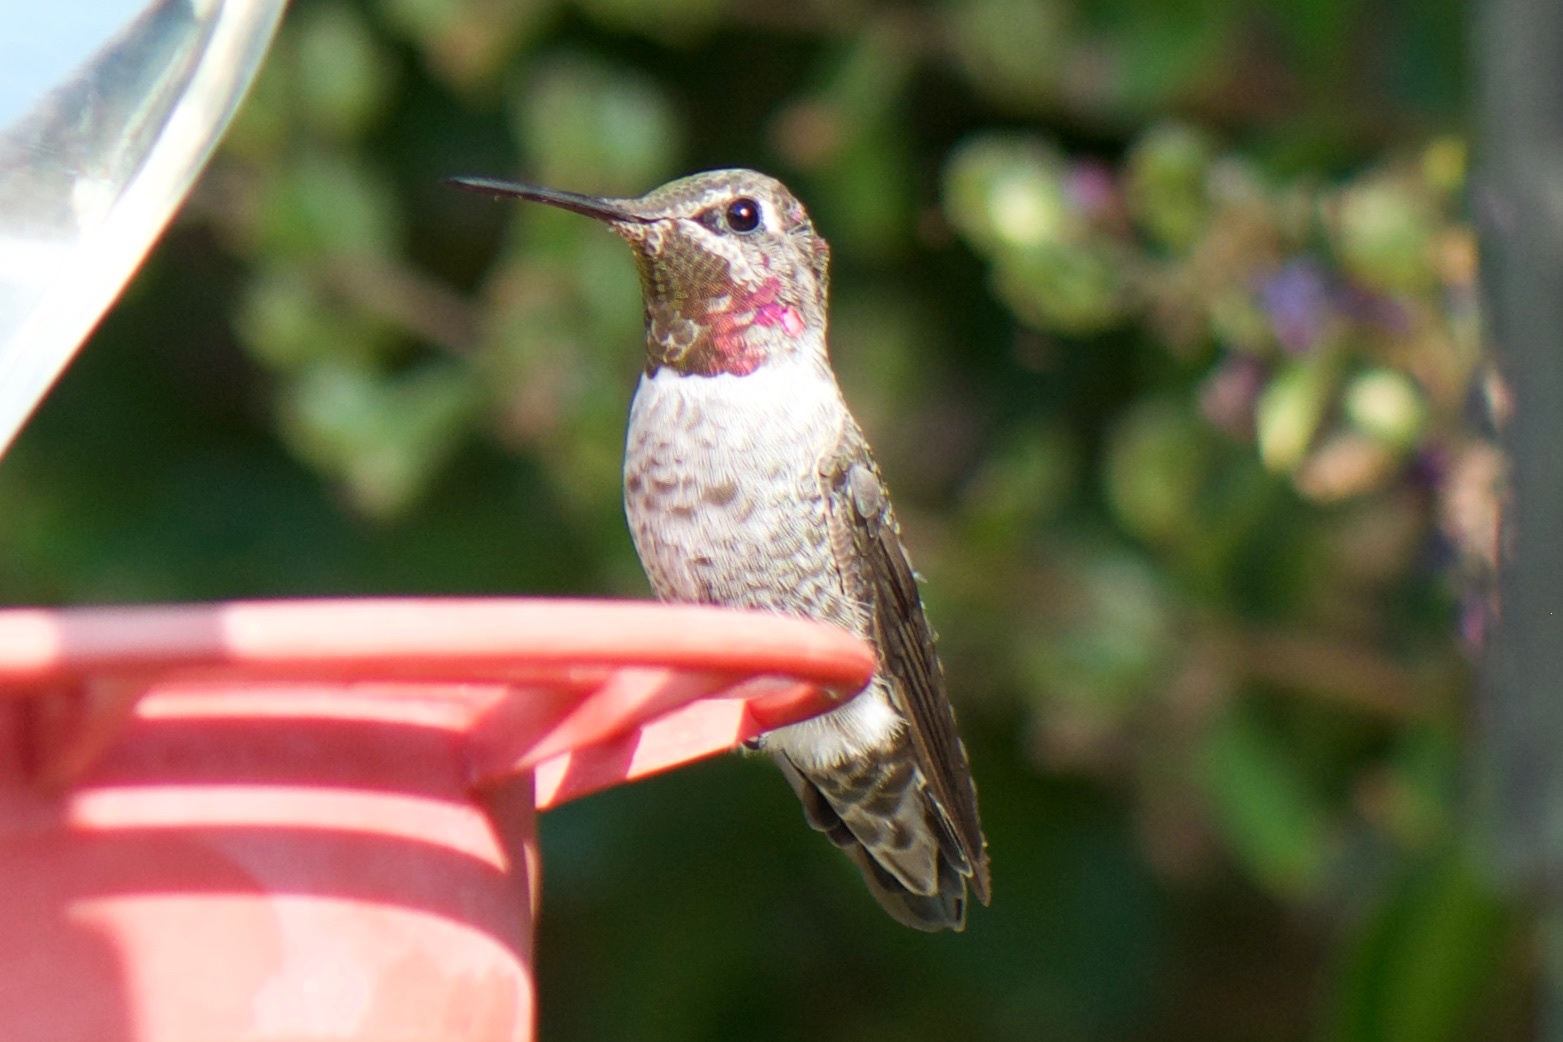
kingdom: Animalia
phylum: Chordata
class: Aves
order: Apodiformes
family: Trochilidae
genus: Calypte
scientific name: Calypte anna
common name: Anna's hummingbird
